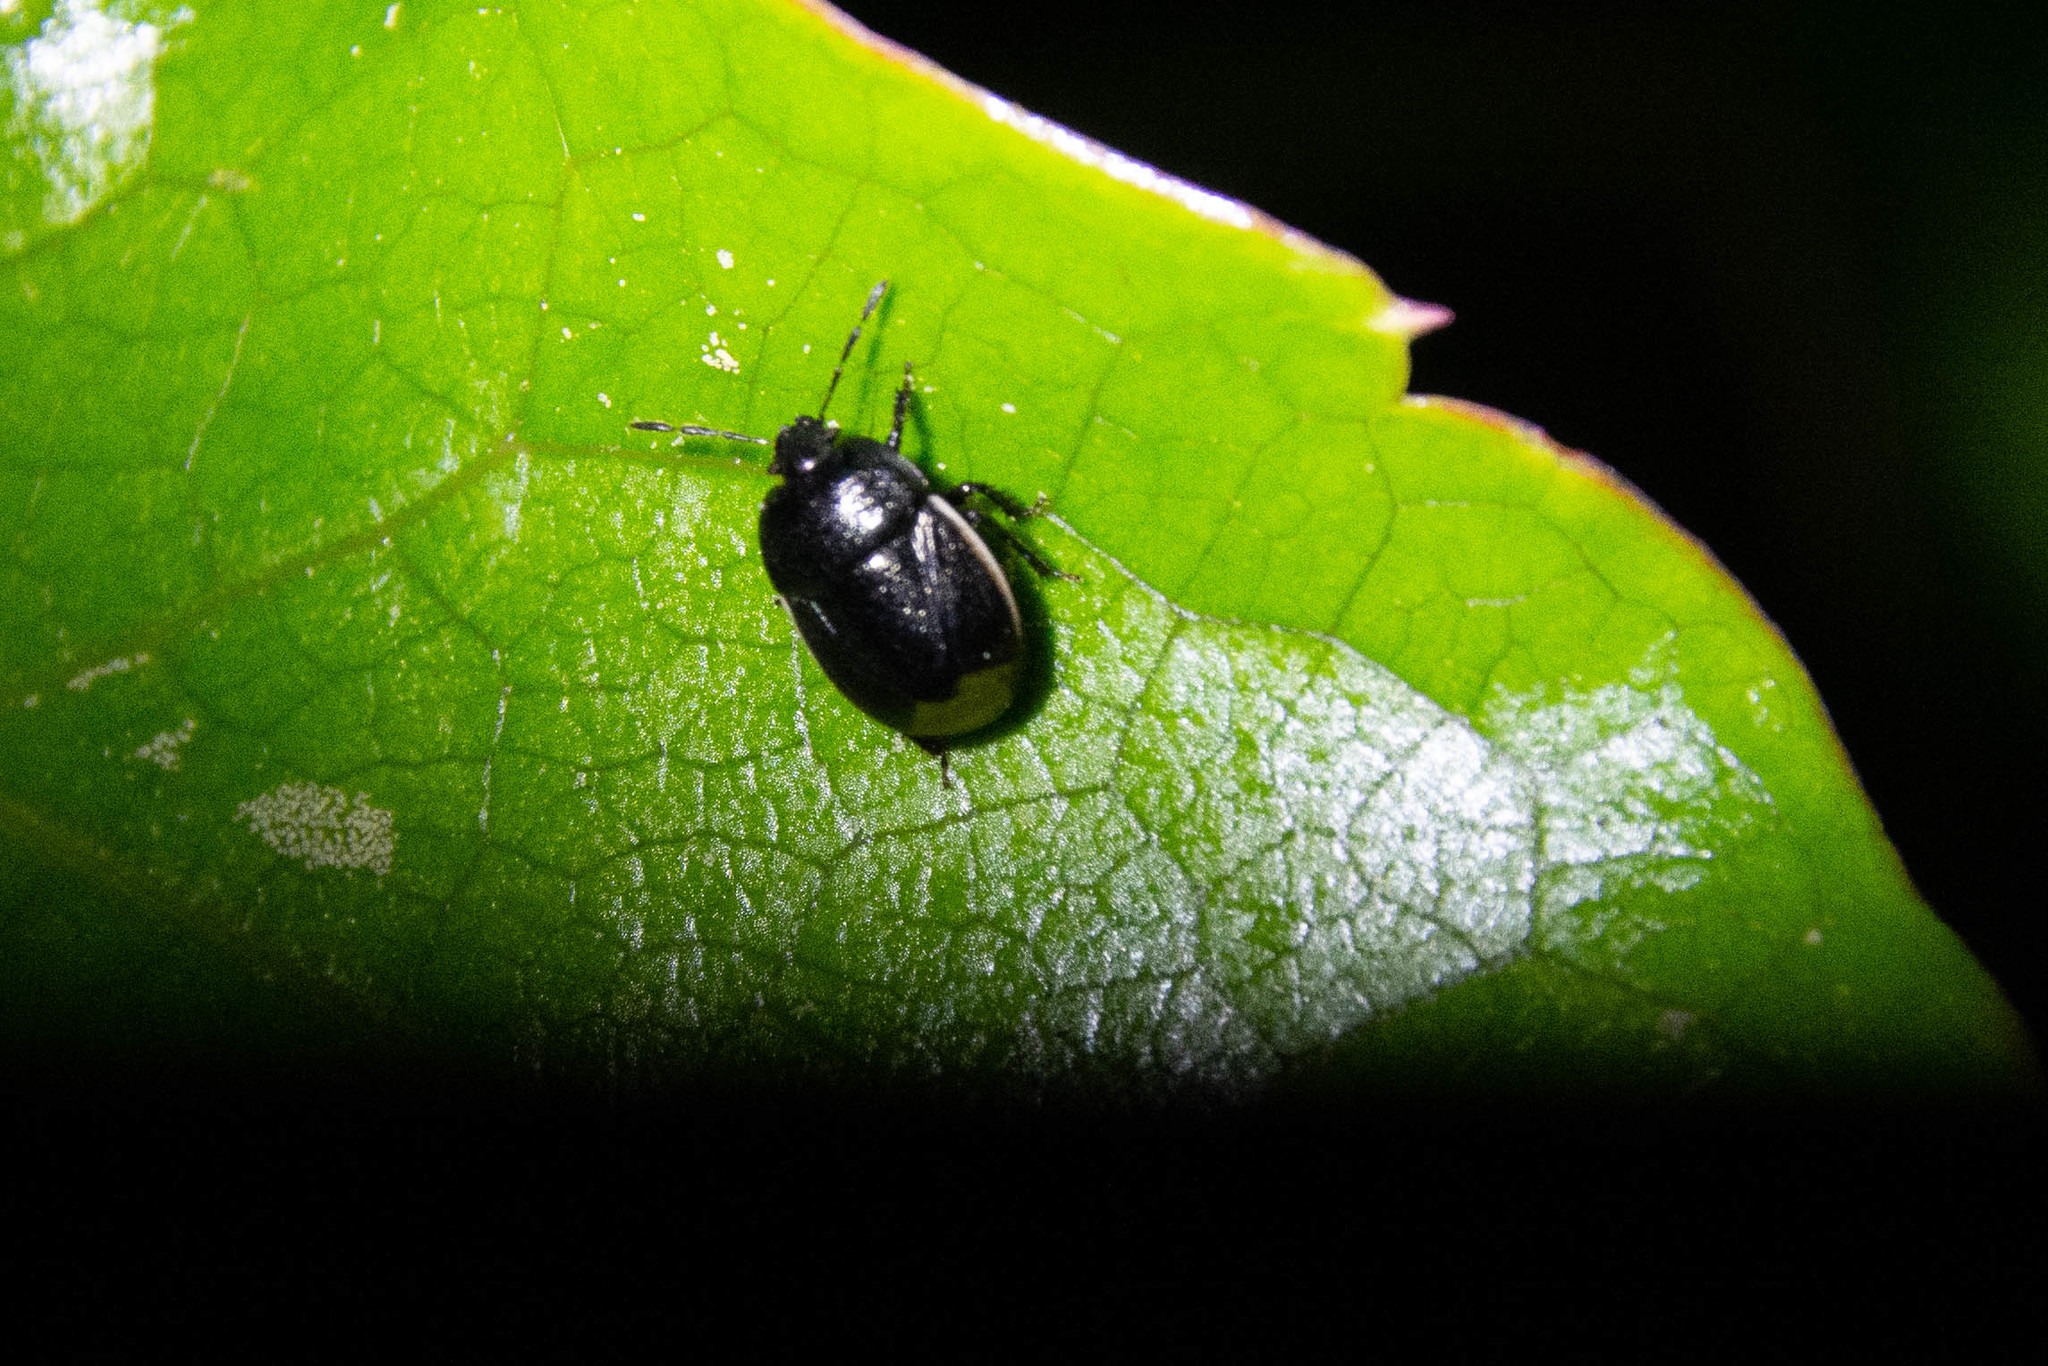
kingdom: Animalia
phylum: Arthropoda
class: Insecta
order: Hemiptera
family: Cydnidae
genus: Legnotus
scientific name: Legnotus limbosus
